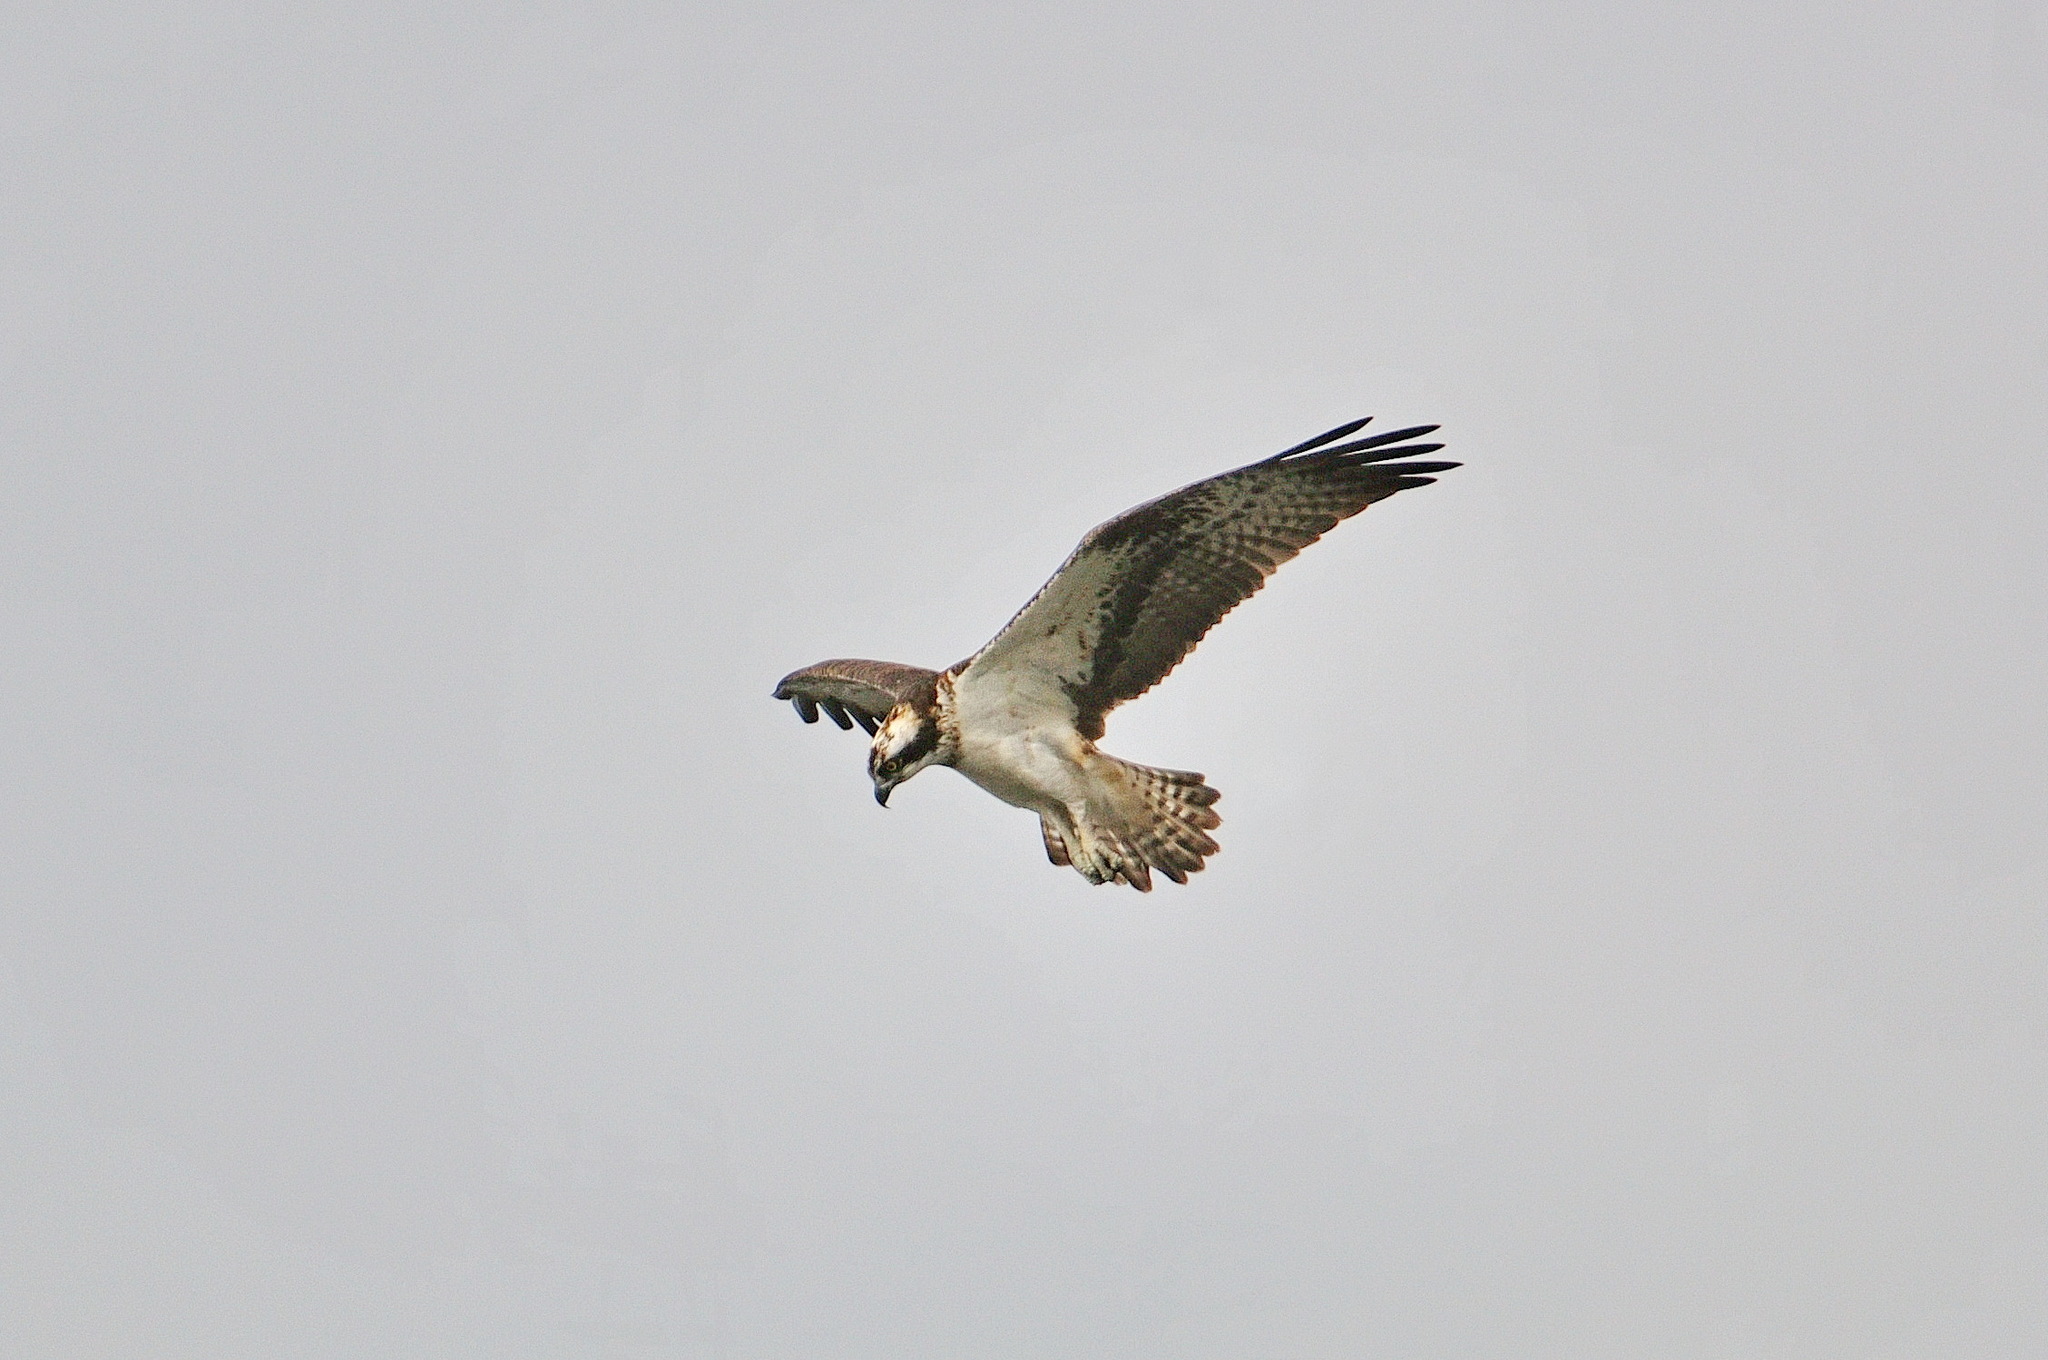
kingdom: Animalia
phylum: Chordata
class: Aves
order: Accipitriformes
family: Pandionidae
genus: Pandion
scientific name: Pandion haliaetus
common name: Osprey
